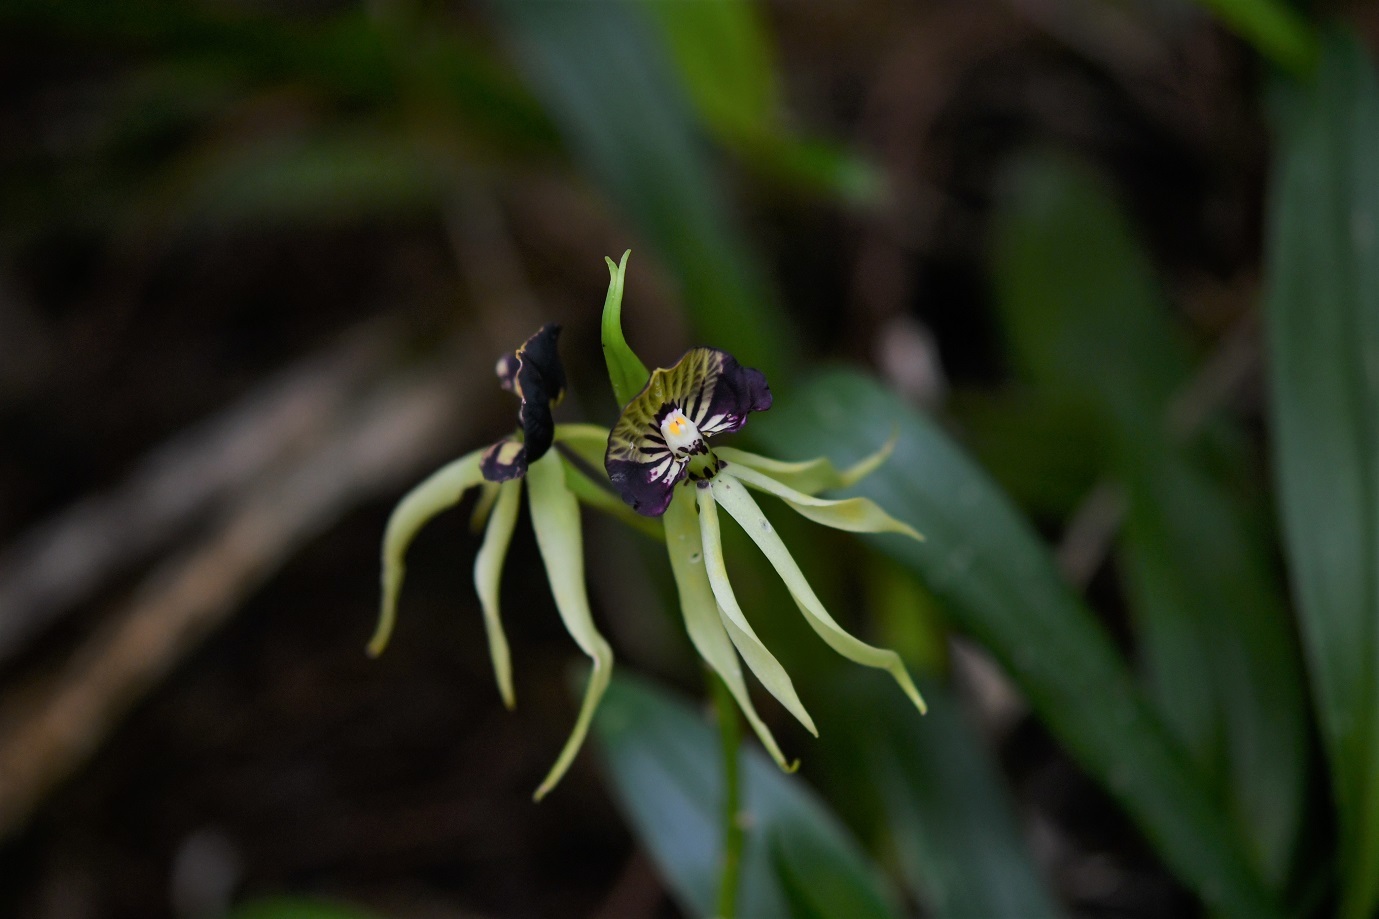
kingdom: Plantae
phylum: Tracheophyta
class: Liliopsida
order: Asparagales
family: Orchidaceae
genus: Prosthechea
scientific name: Prosthechea cochleata
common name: Clamshell orchid
